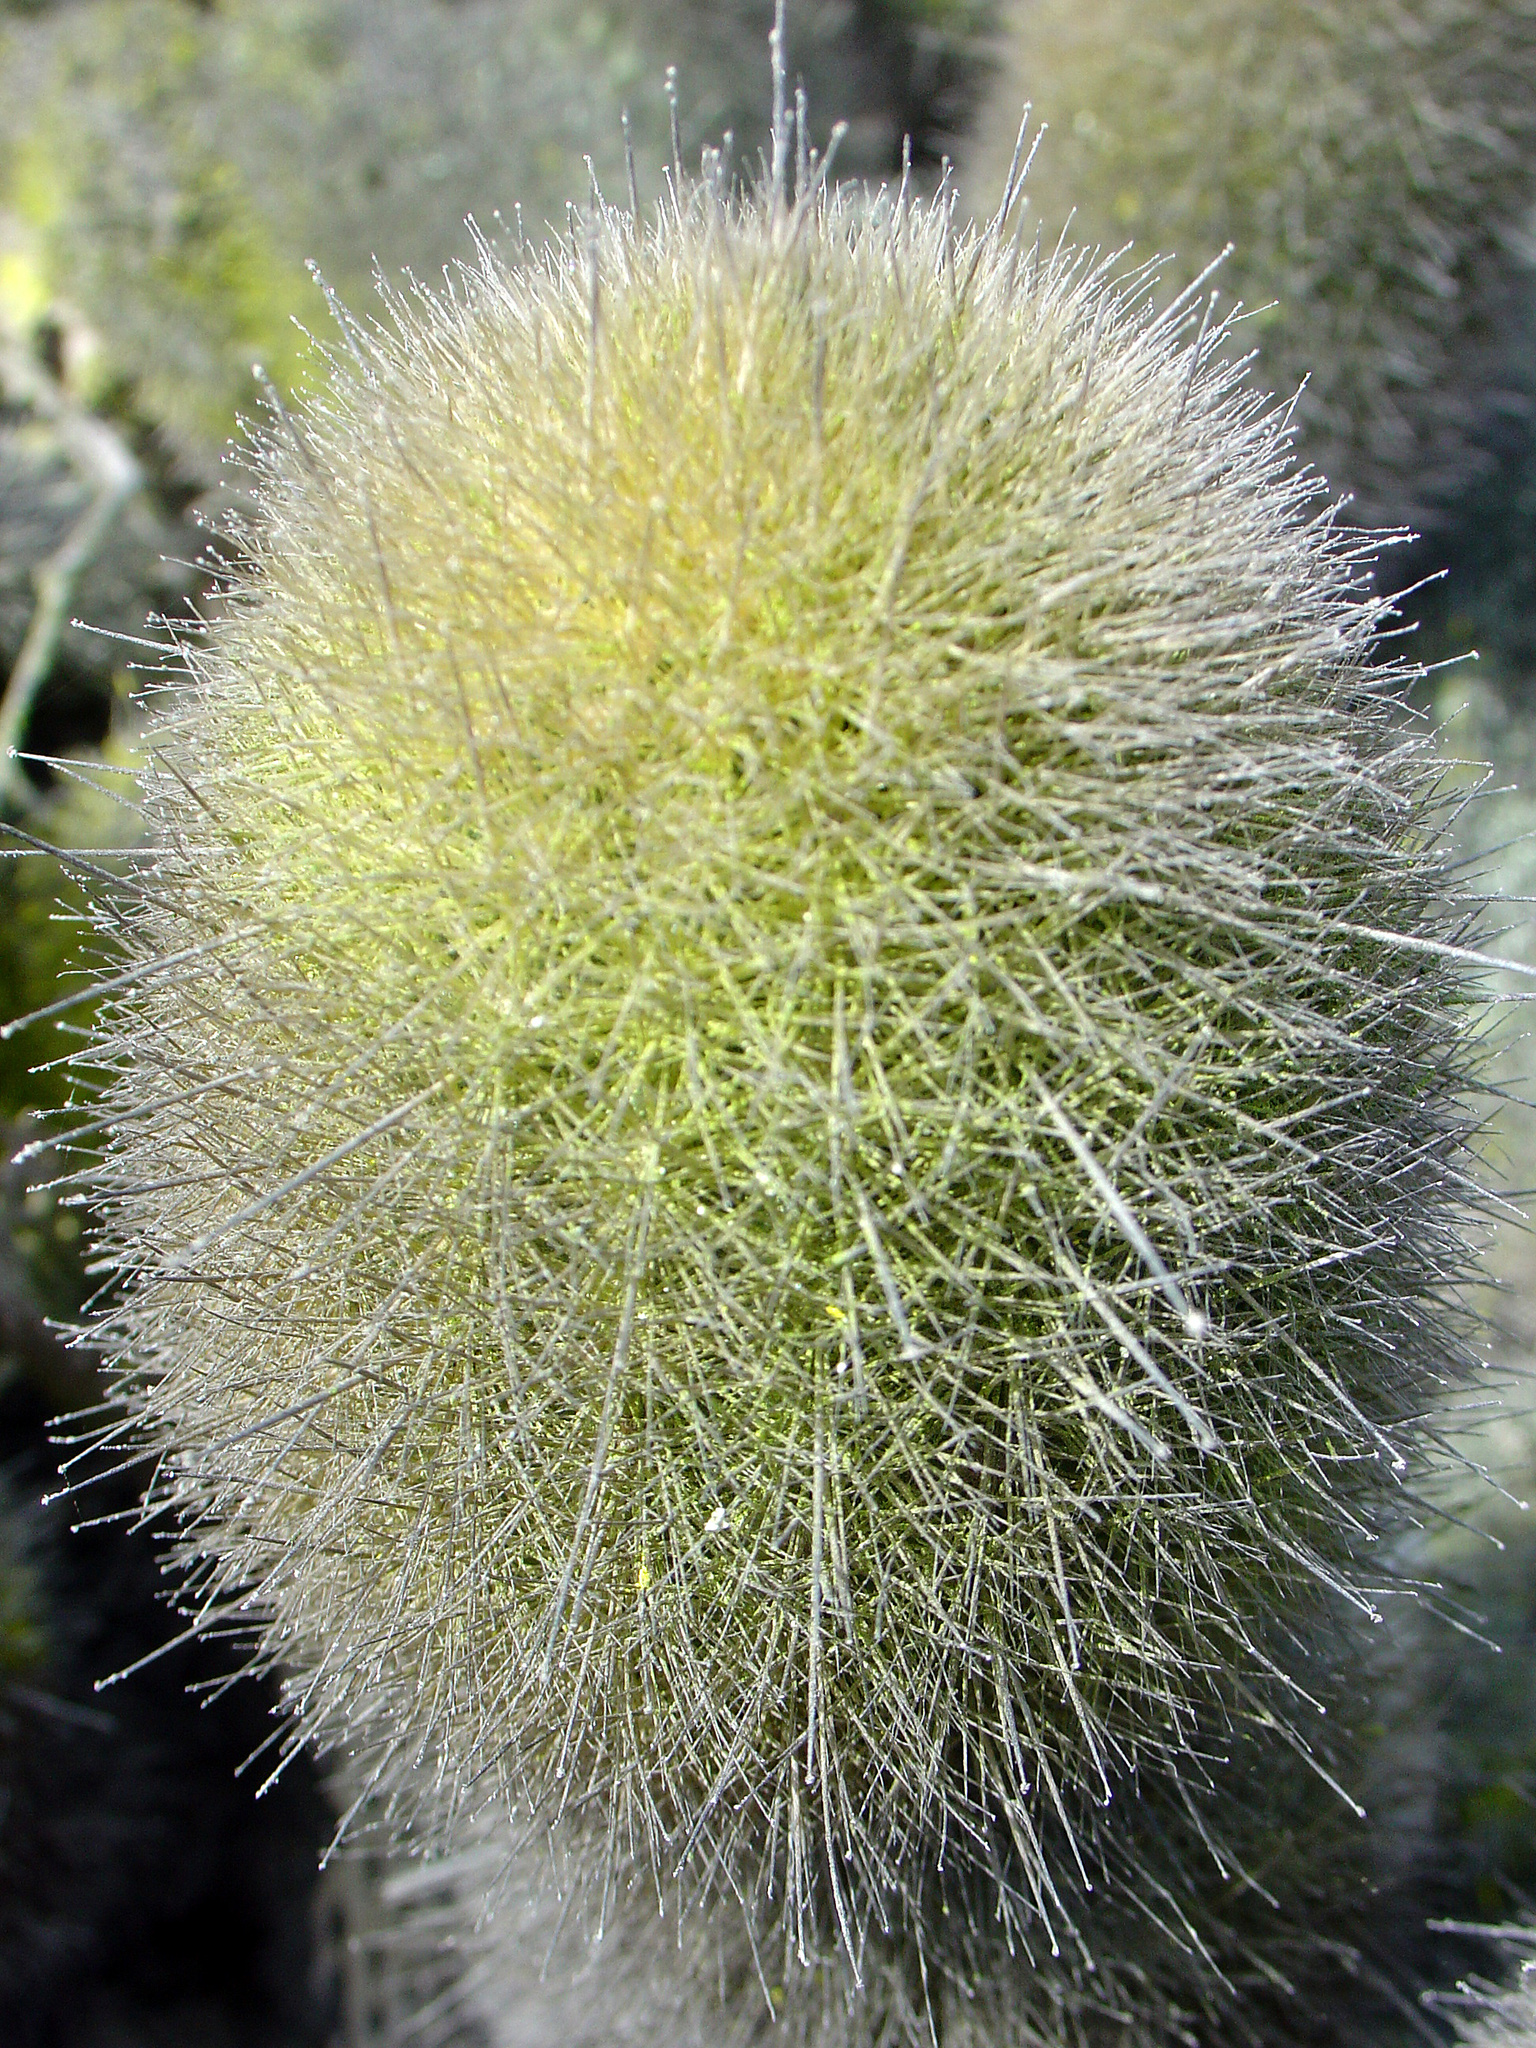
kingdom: Plantae
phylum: Tracheophyta
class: Magnoliopsida
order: Caryophyllales
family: Cactaceae
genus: Haageocereus
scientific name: Haageocereus pseudomelanostele
